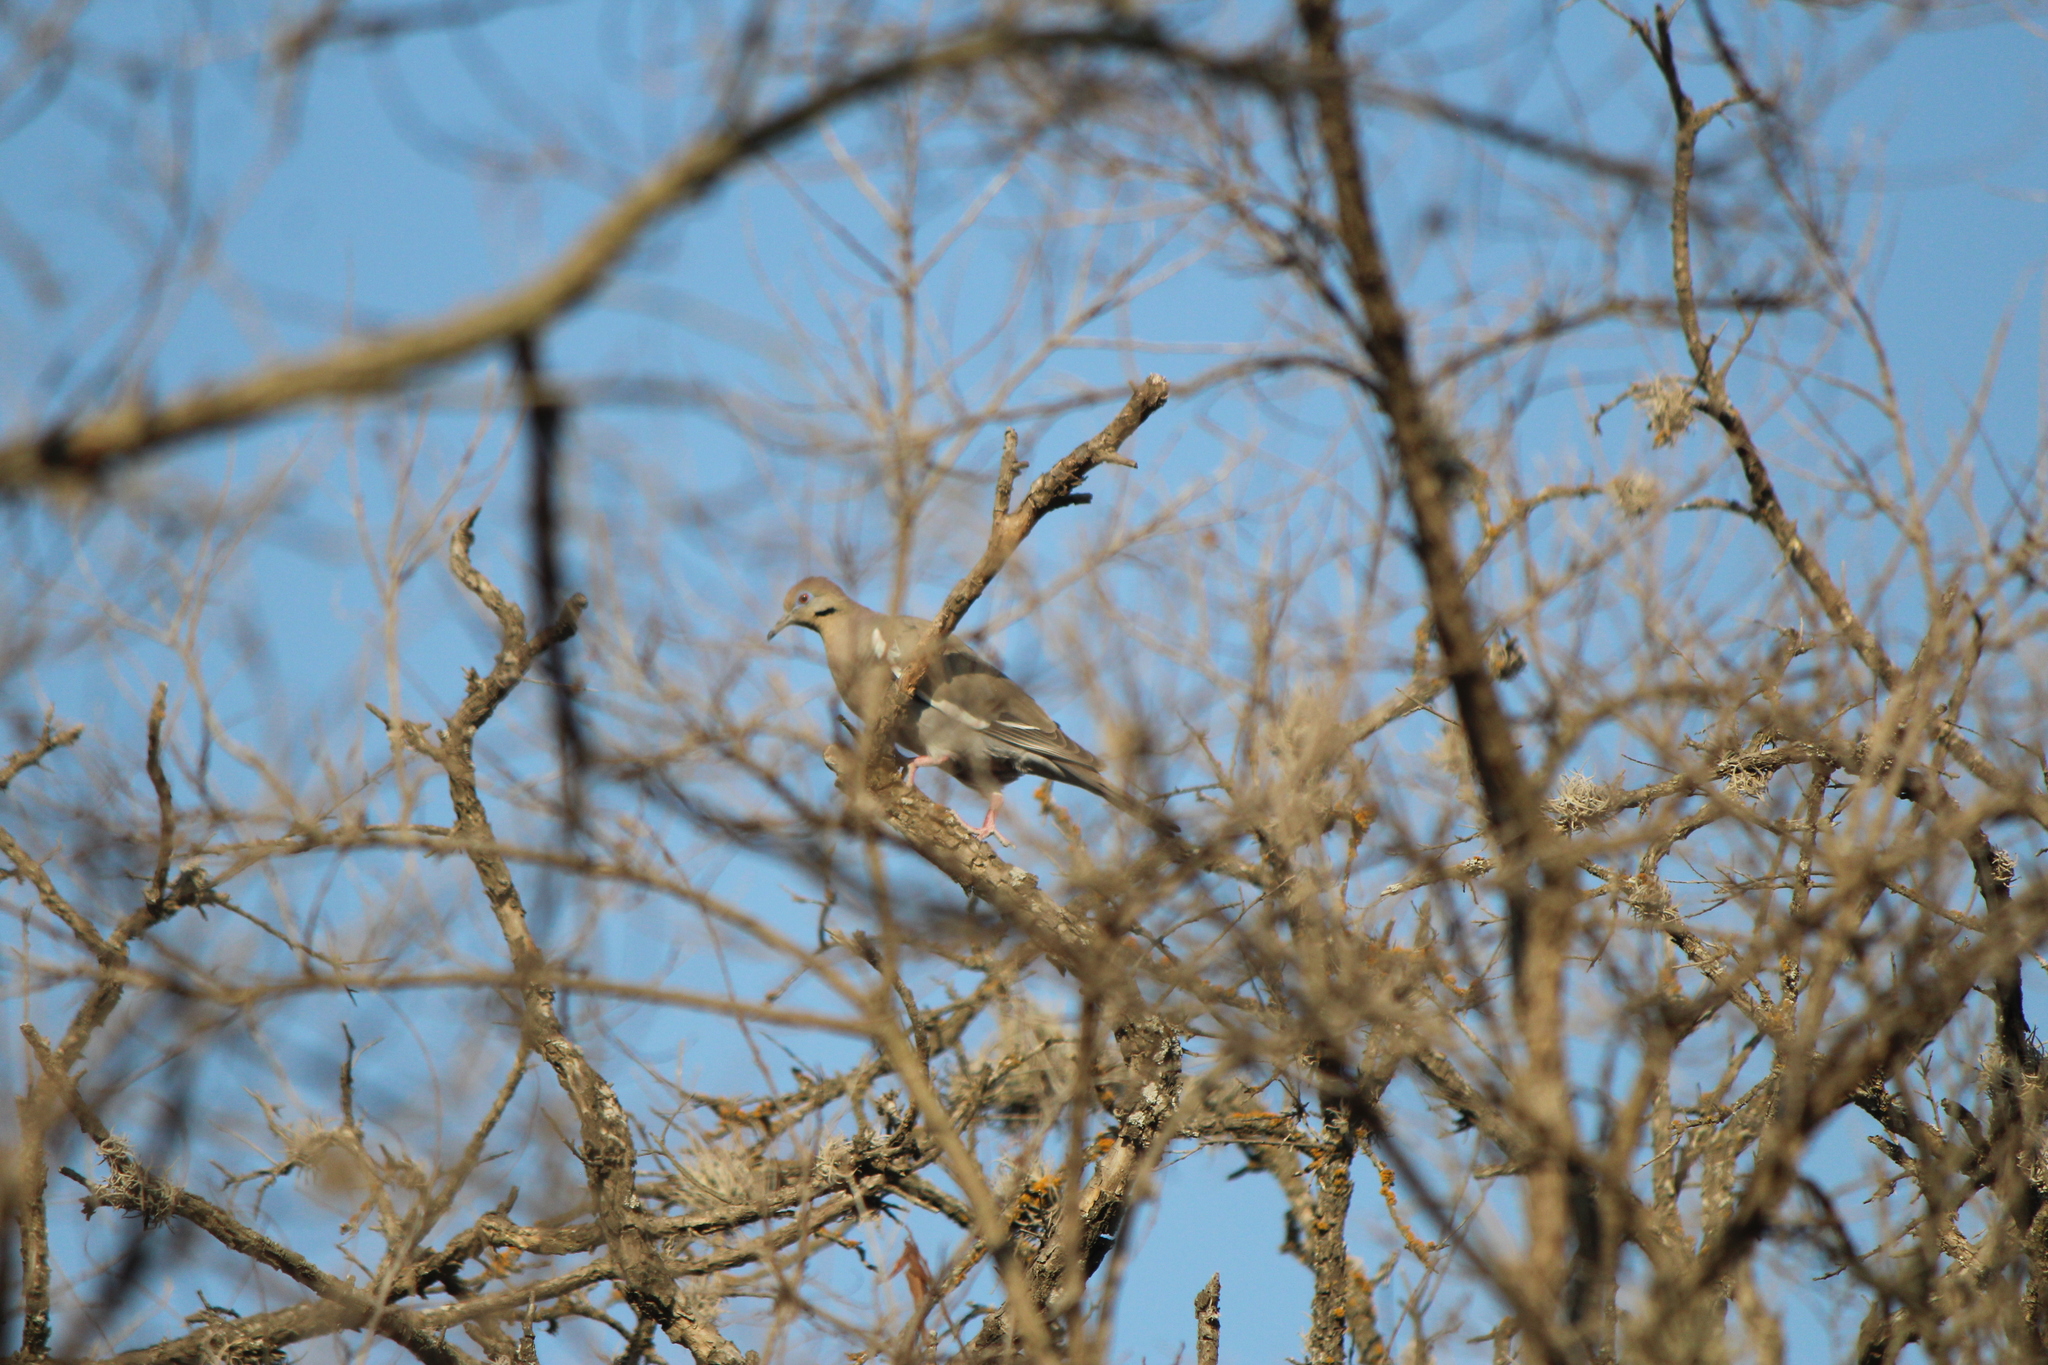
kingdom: Animalia
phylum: Chordata
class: Aves
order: Columbiformes
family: Columbidae
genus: Zenaida
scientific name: Zenaida asiatica
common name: White-winged dove
